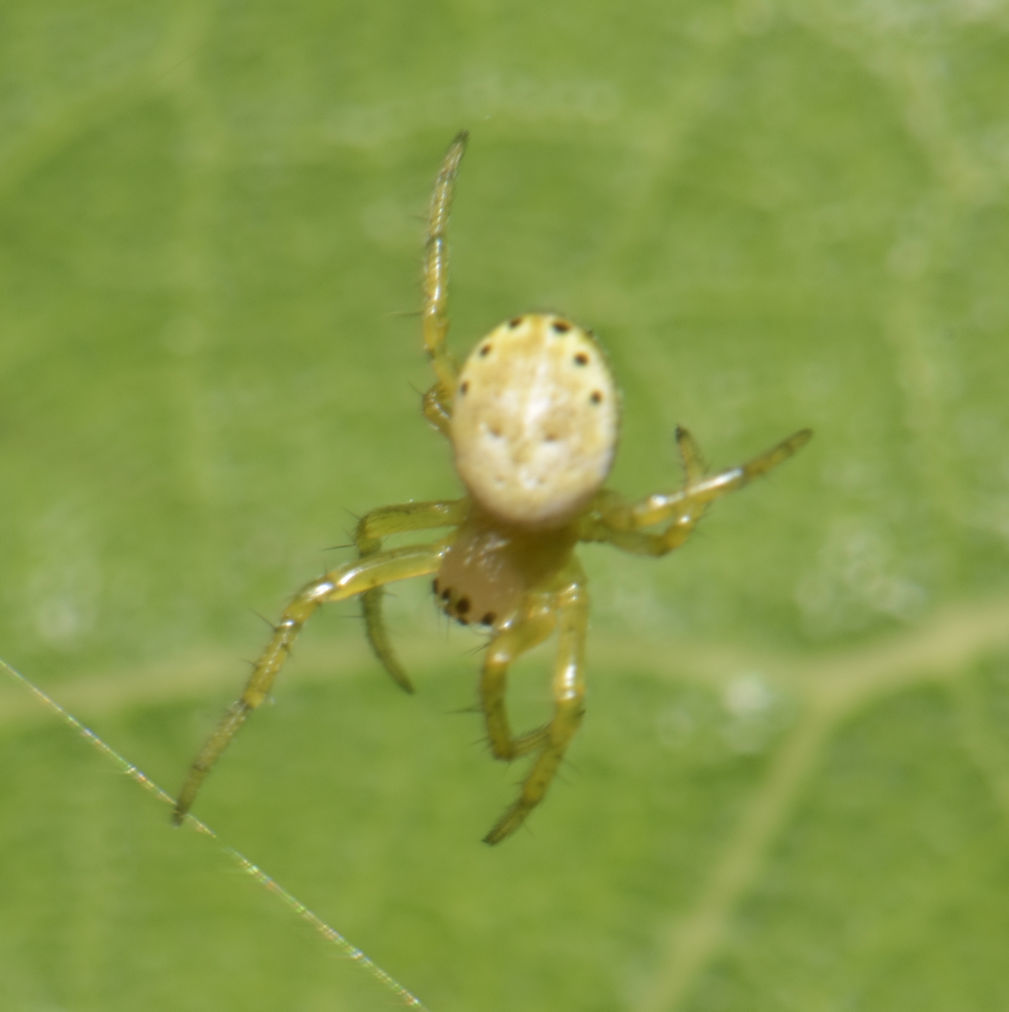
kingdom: Animalia
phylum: Arthropoda
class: Arachnida
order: Araneae
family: Araneidae
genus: Araniella
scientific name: Araniella displicata
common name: Sixspotted orb weaver
